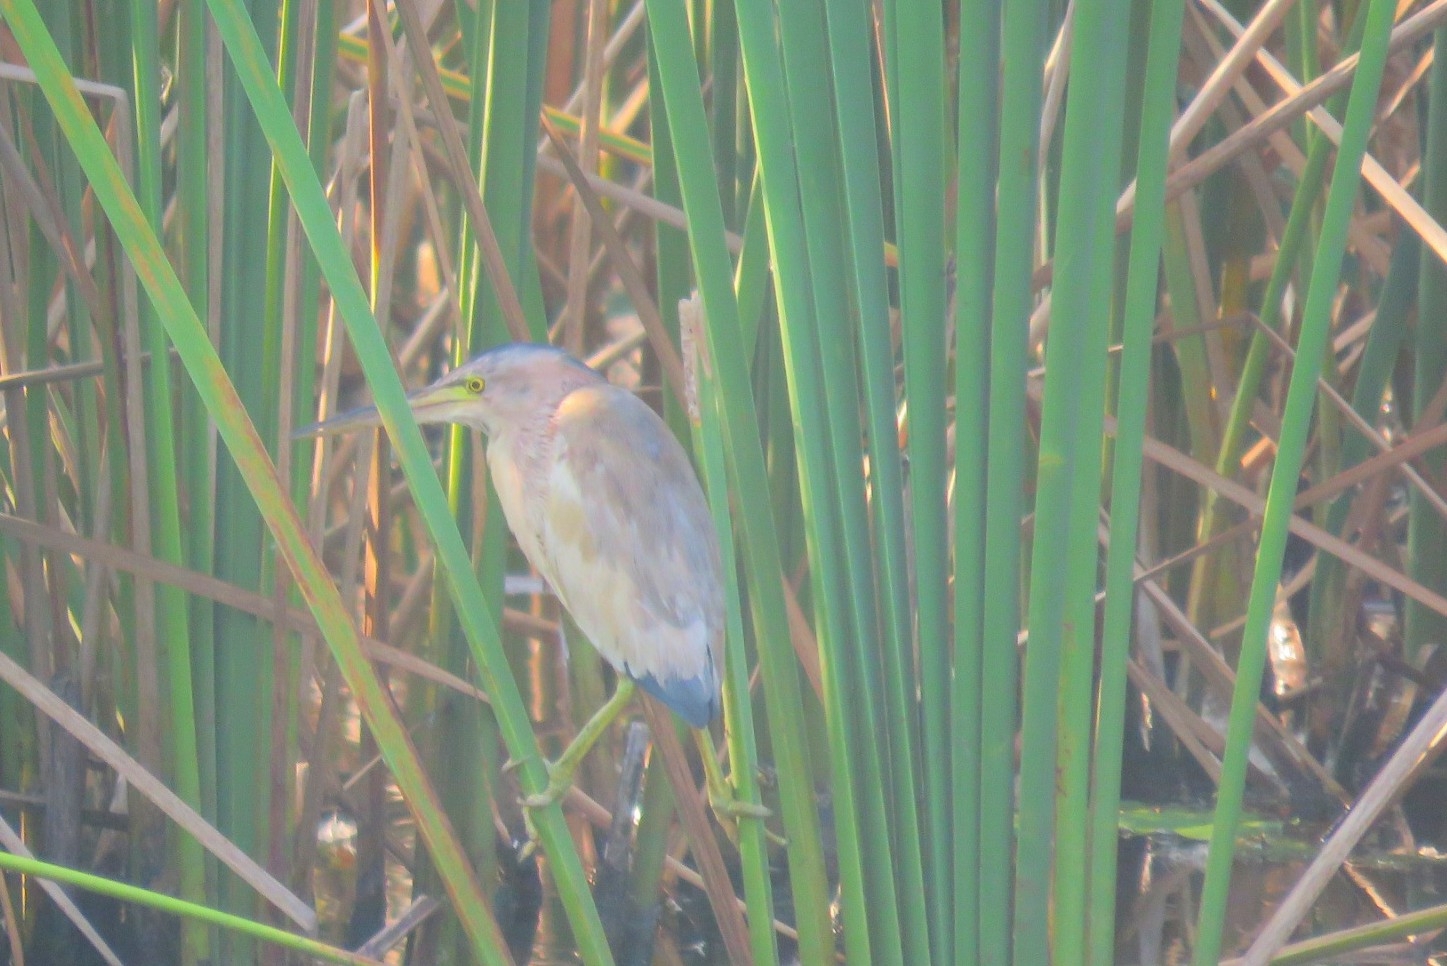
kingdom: Animalia
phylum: Chordata
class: Aves
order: Pelecaniformes
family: Ardeidae
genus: Ixobrychus
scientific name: Ixobrychus sinensis
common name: Yellow bittern
